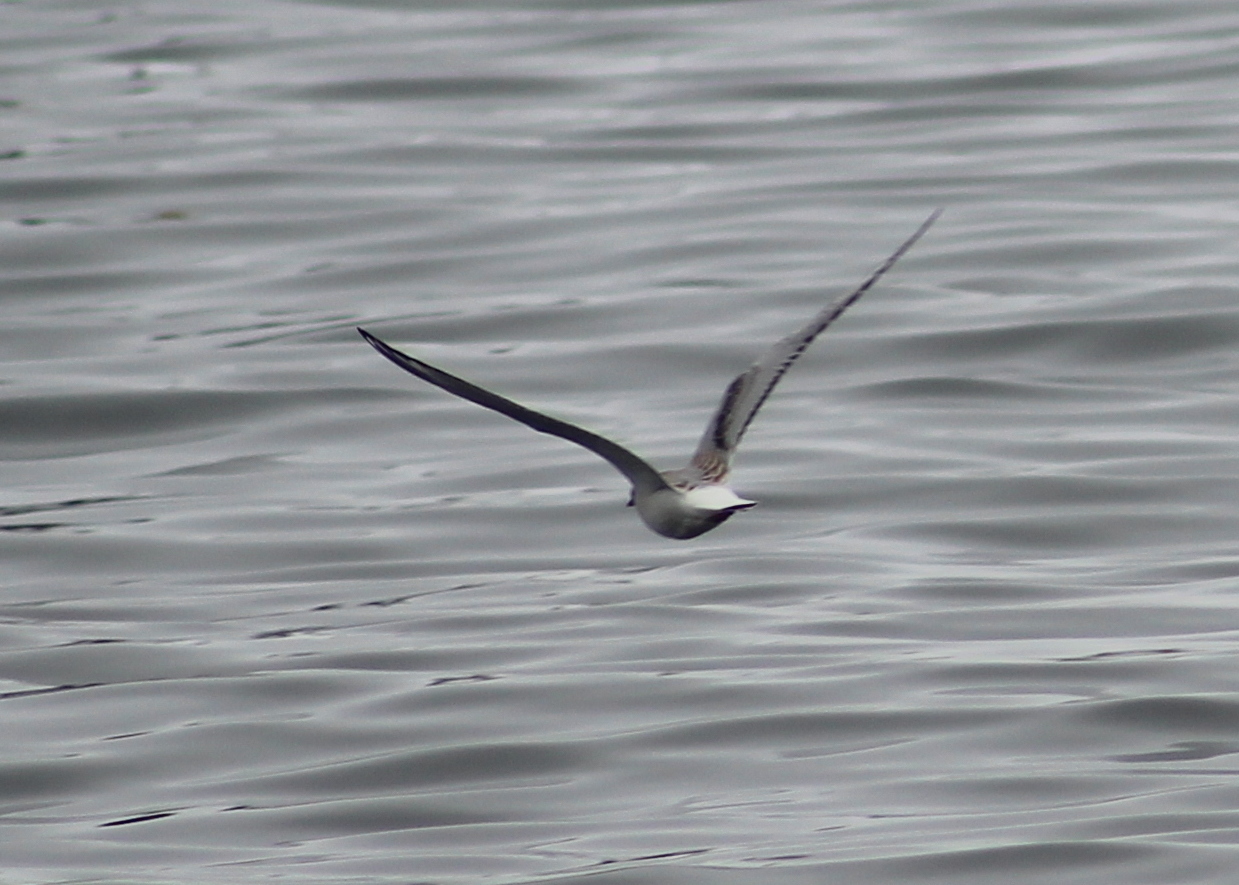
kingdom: Animalia
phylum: Chordata
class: Aves
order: Charadriiformes
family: Laridae
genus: Chroicocephalus
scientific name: Chroicocephalus philadelphia
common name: Bonaparte's gull
